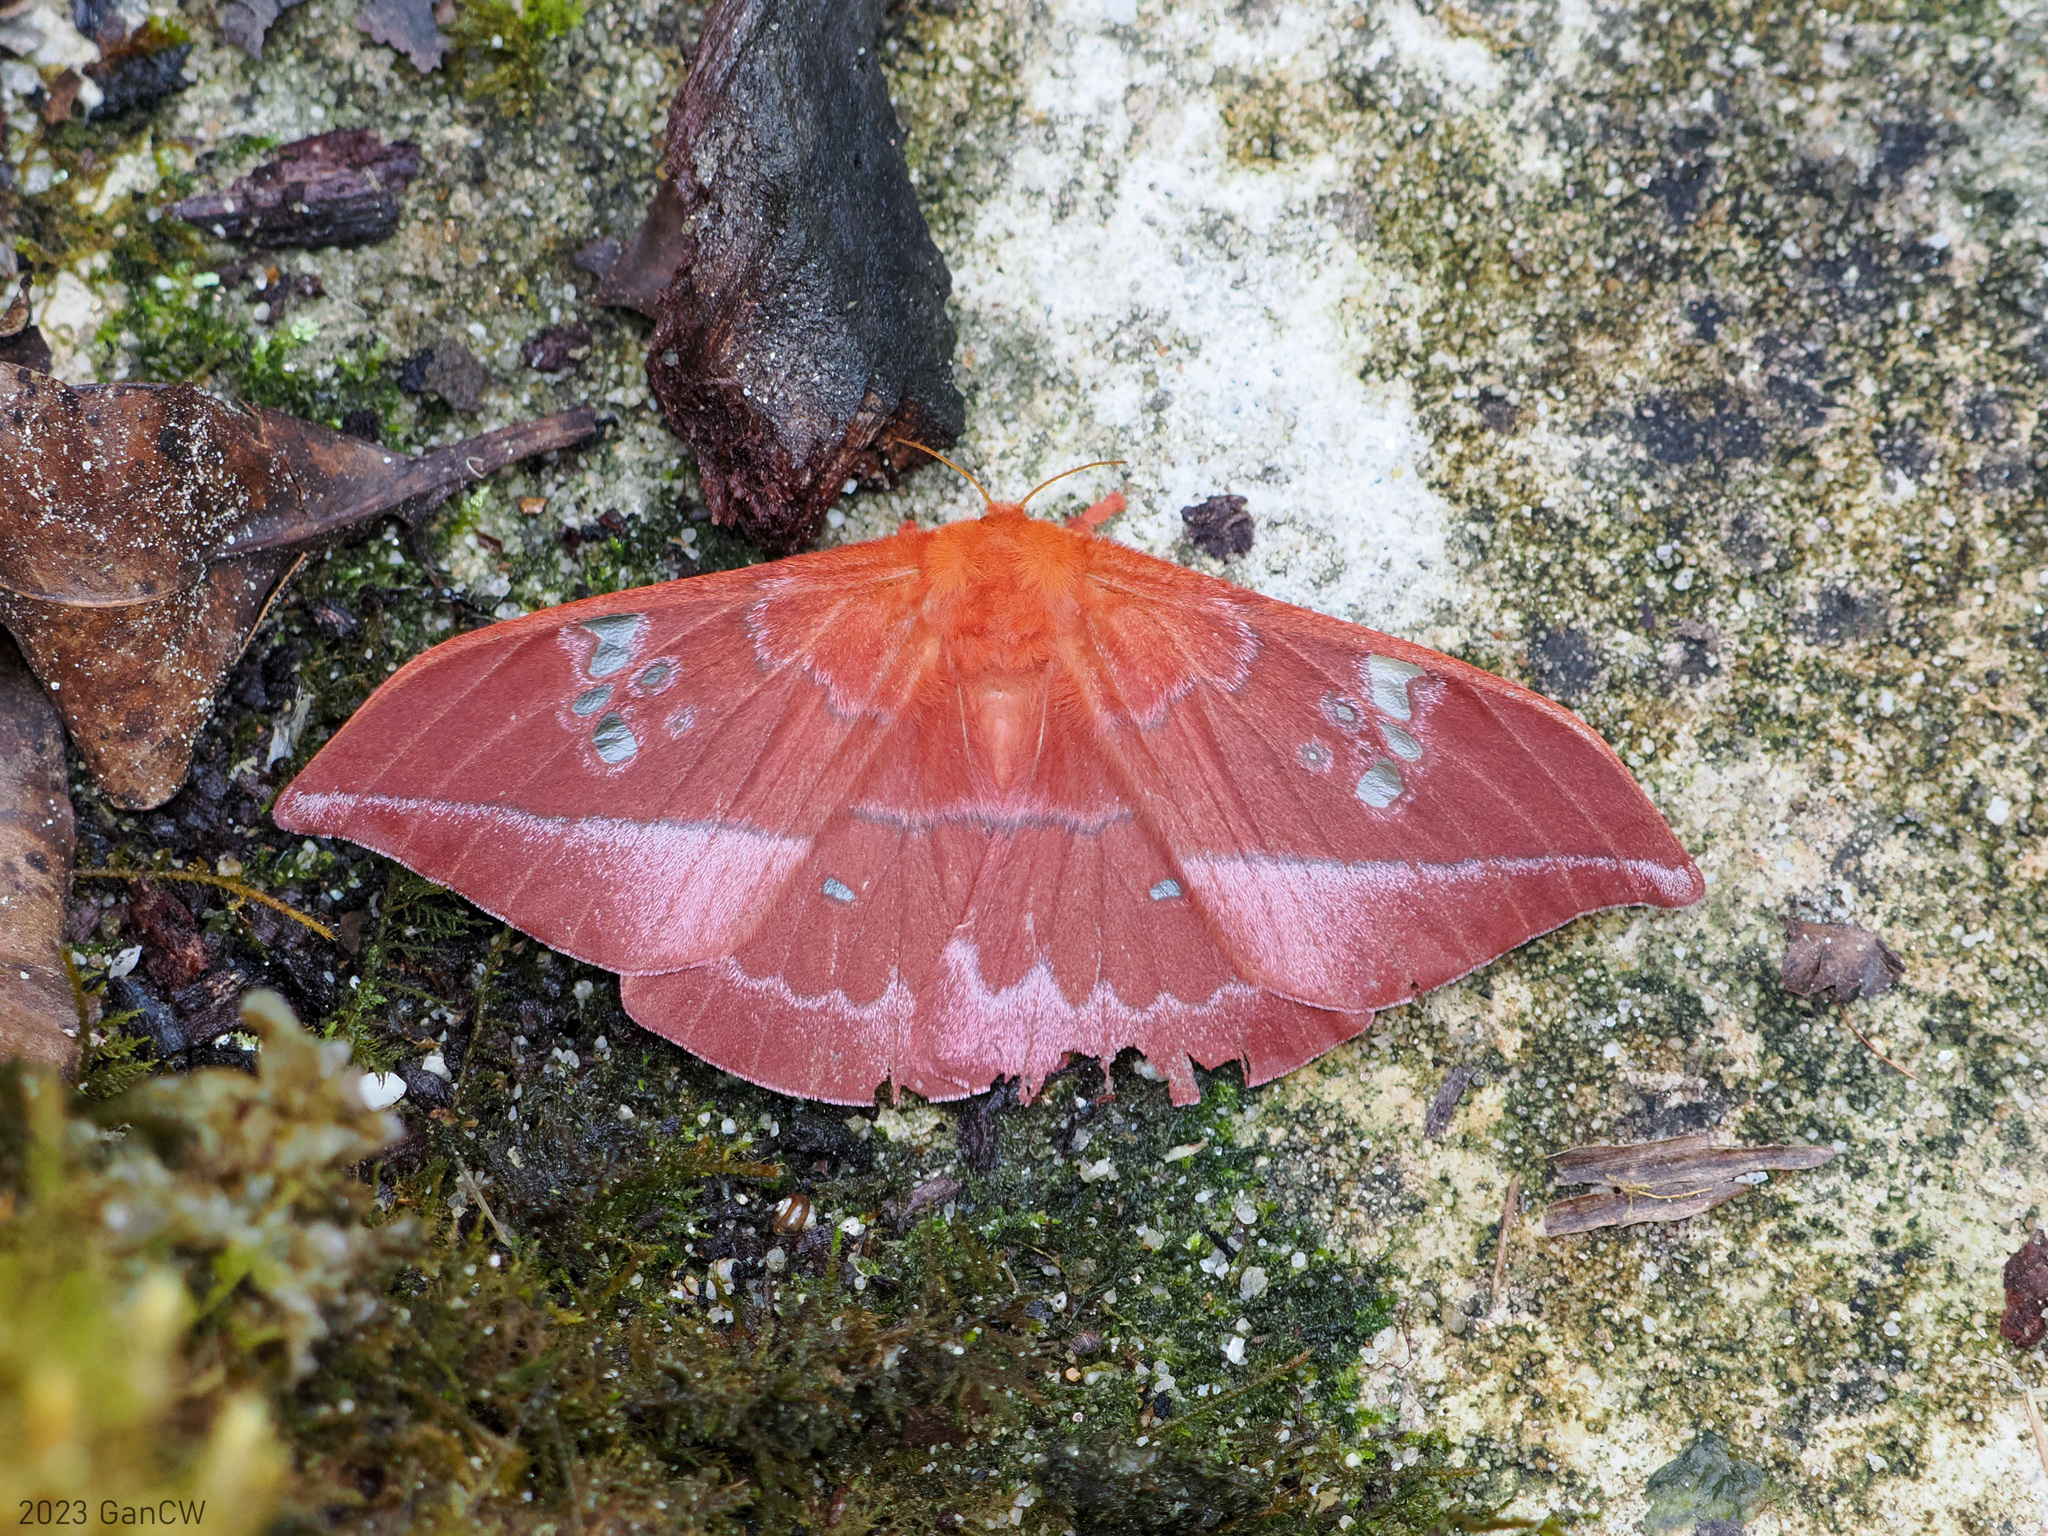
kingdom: Animalia
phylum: Arthropoda
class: Insecta
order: Lepidoptera
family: Saturniidae
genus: Cricula
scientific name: Cricula quinquefenestrata
